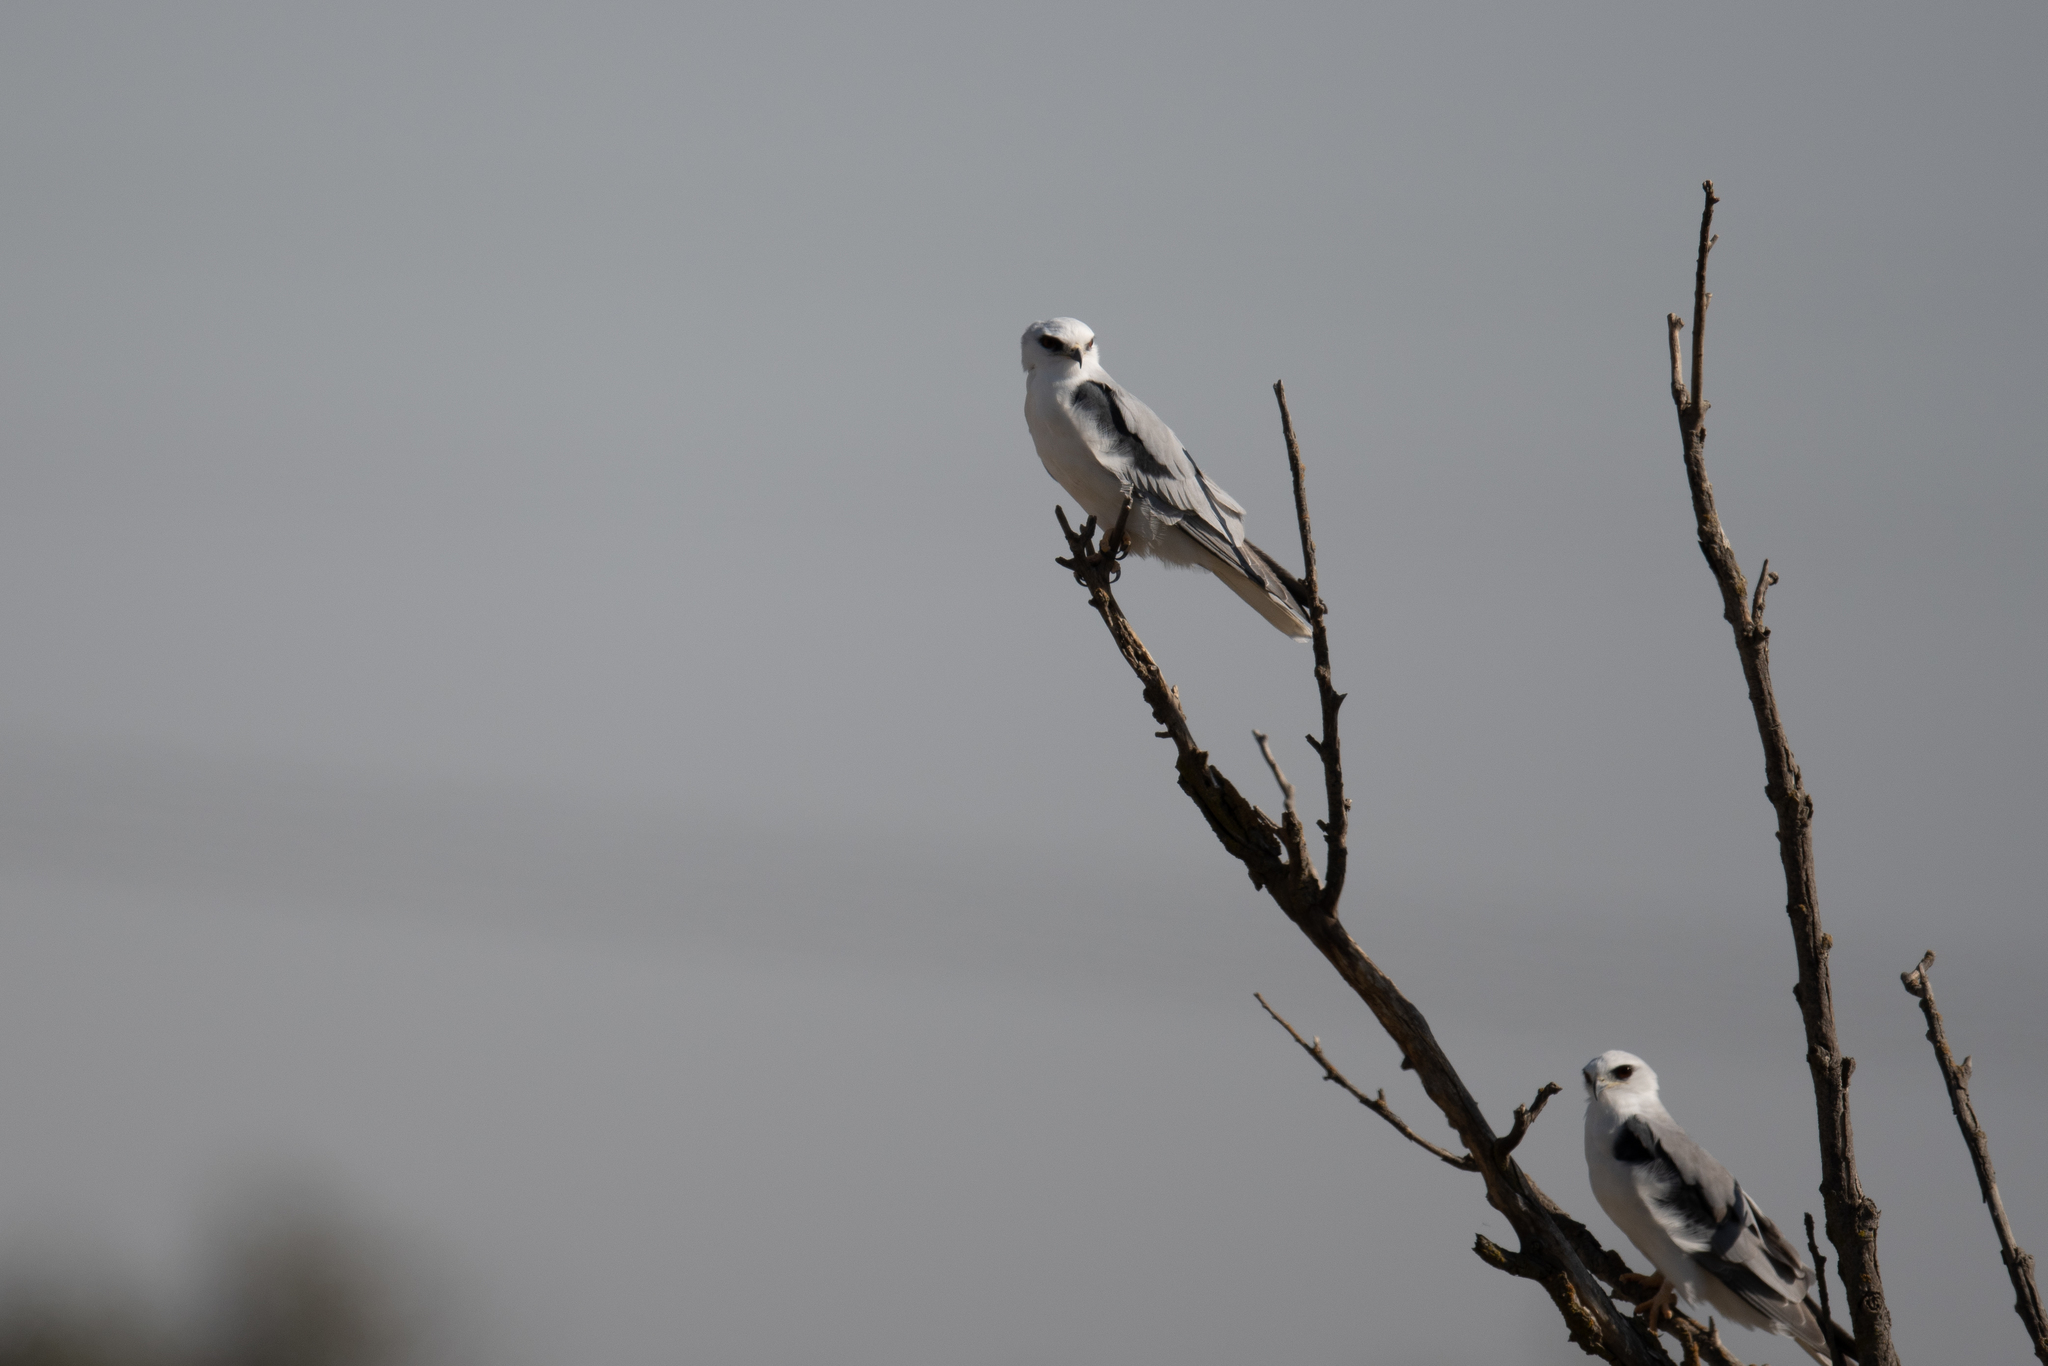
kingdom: Animalia
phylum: Chordata
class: Aves
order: Accipitriformes
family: Accipitridae
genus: Elanus
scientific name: Elanus leucurus
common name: White-tailed kite
